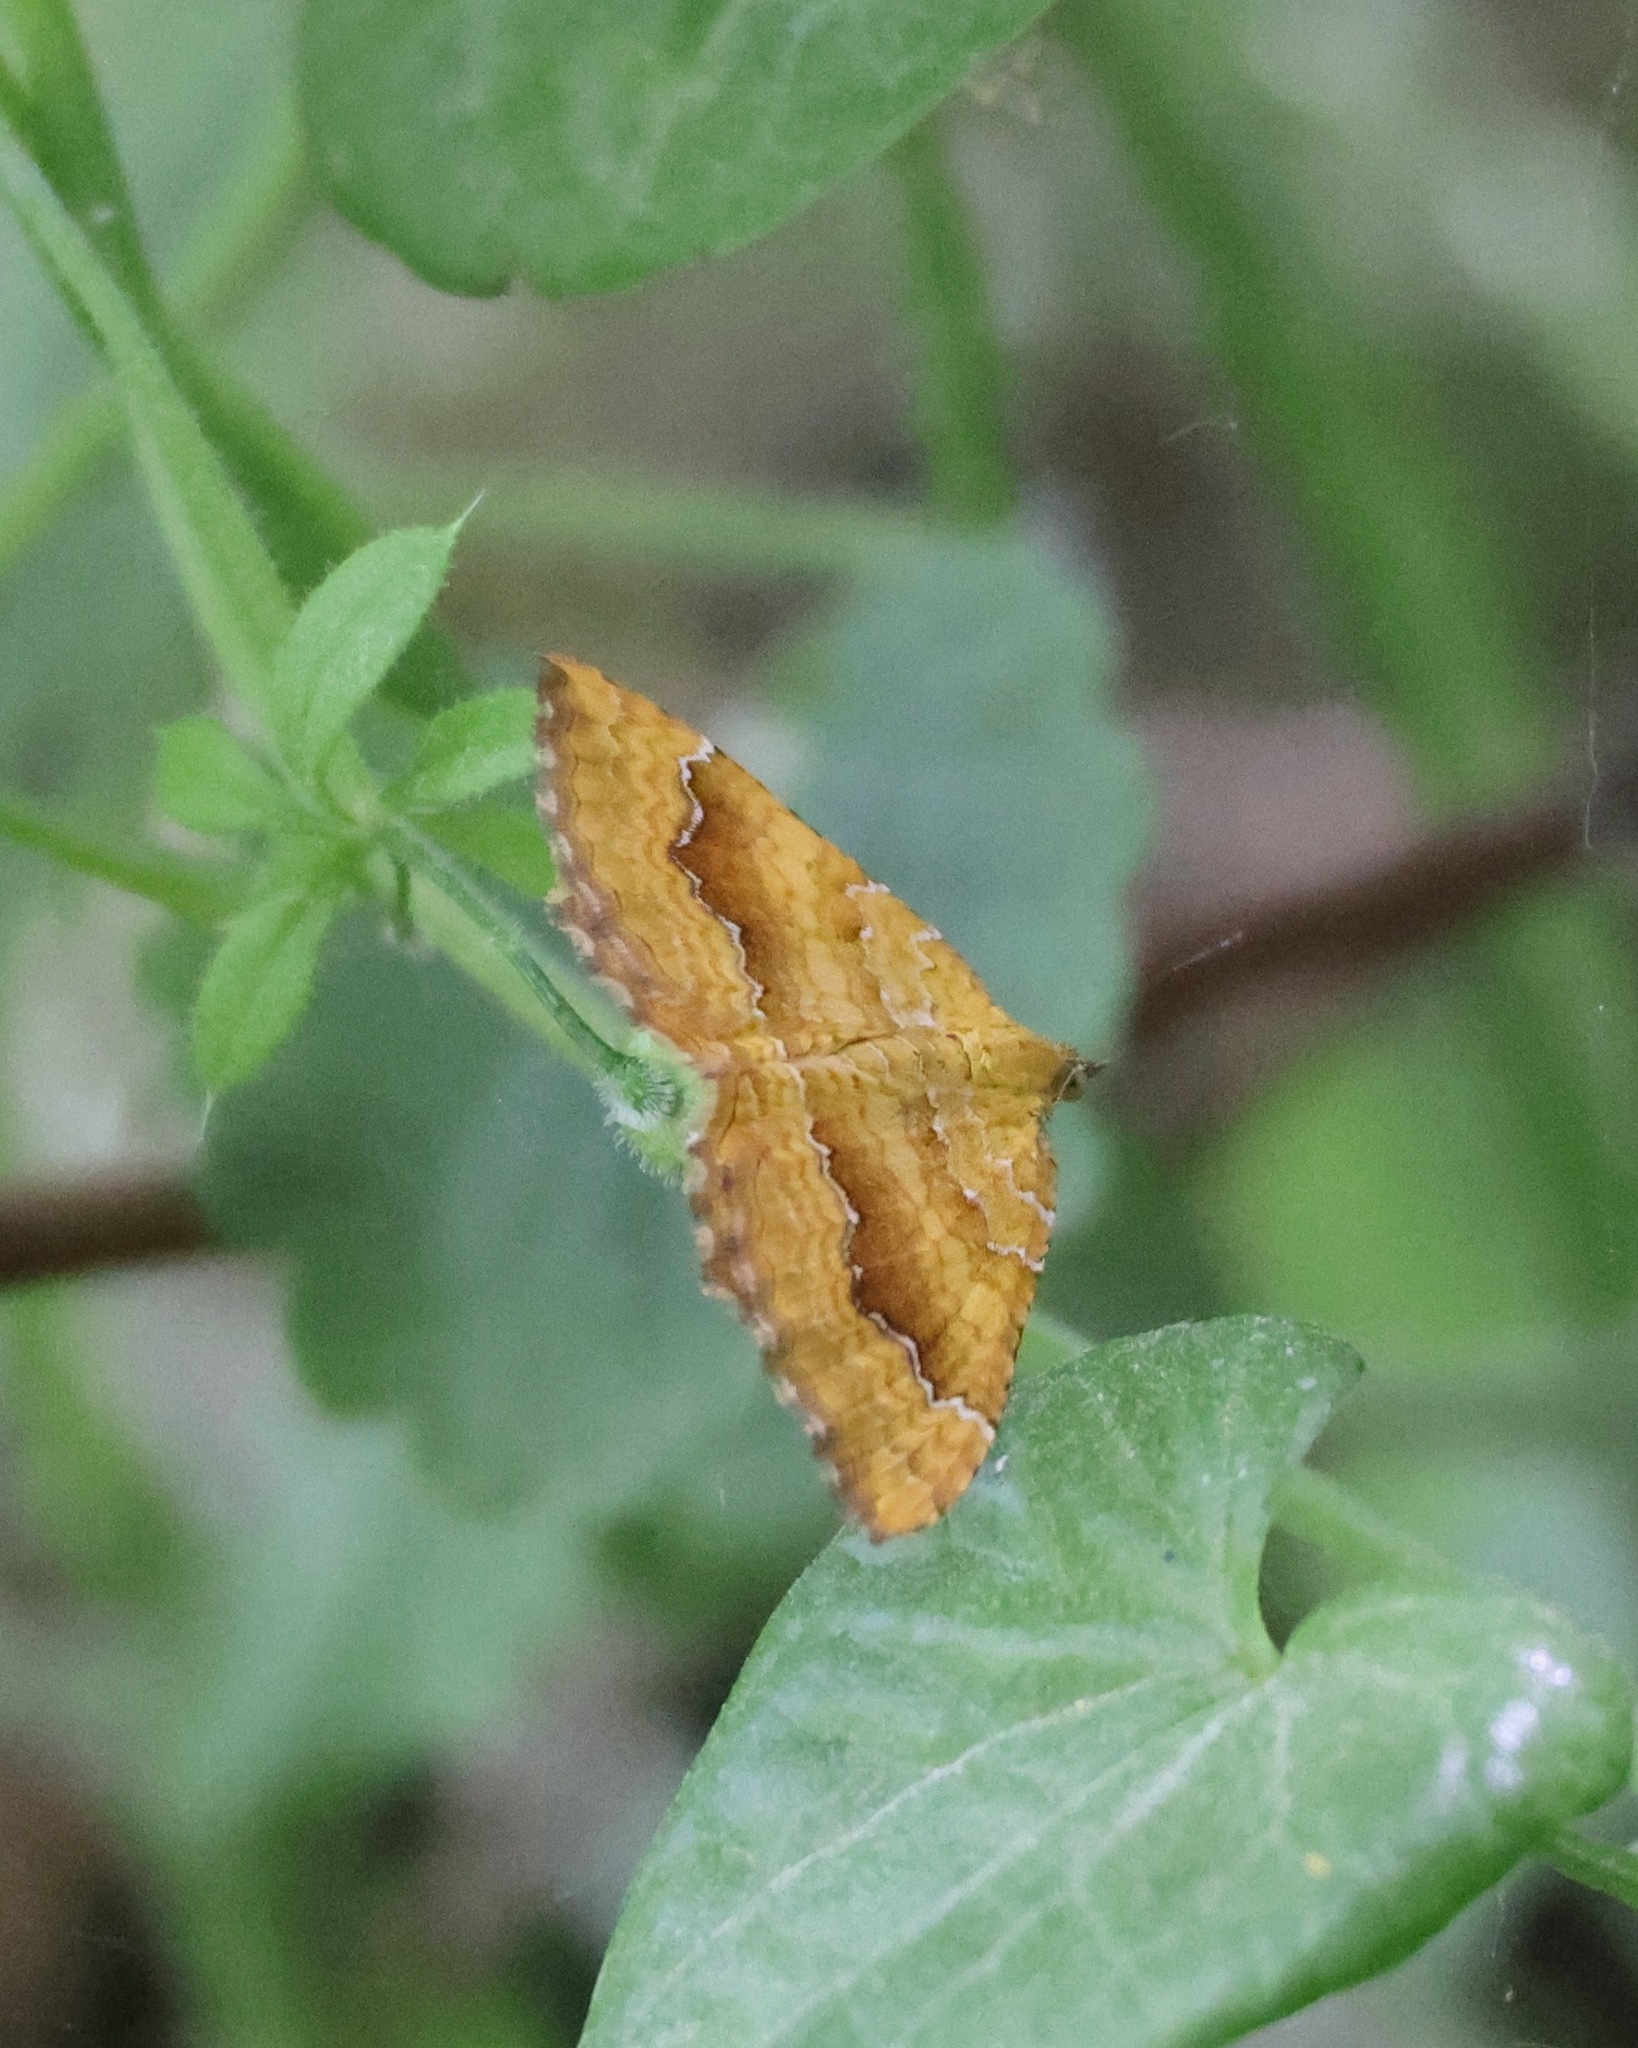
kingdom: Animalia
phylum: Arthropoda
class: Insecta
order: Lepidoptera
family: Geometridae
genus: Camptogramma
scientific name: Camptogramma bilineata
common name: Yellow shell
